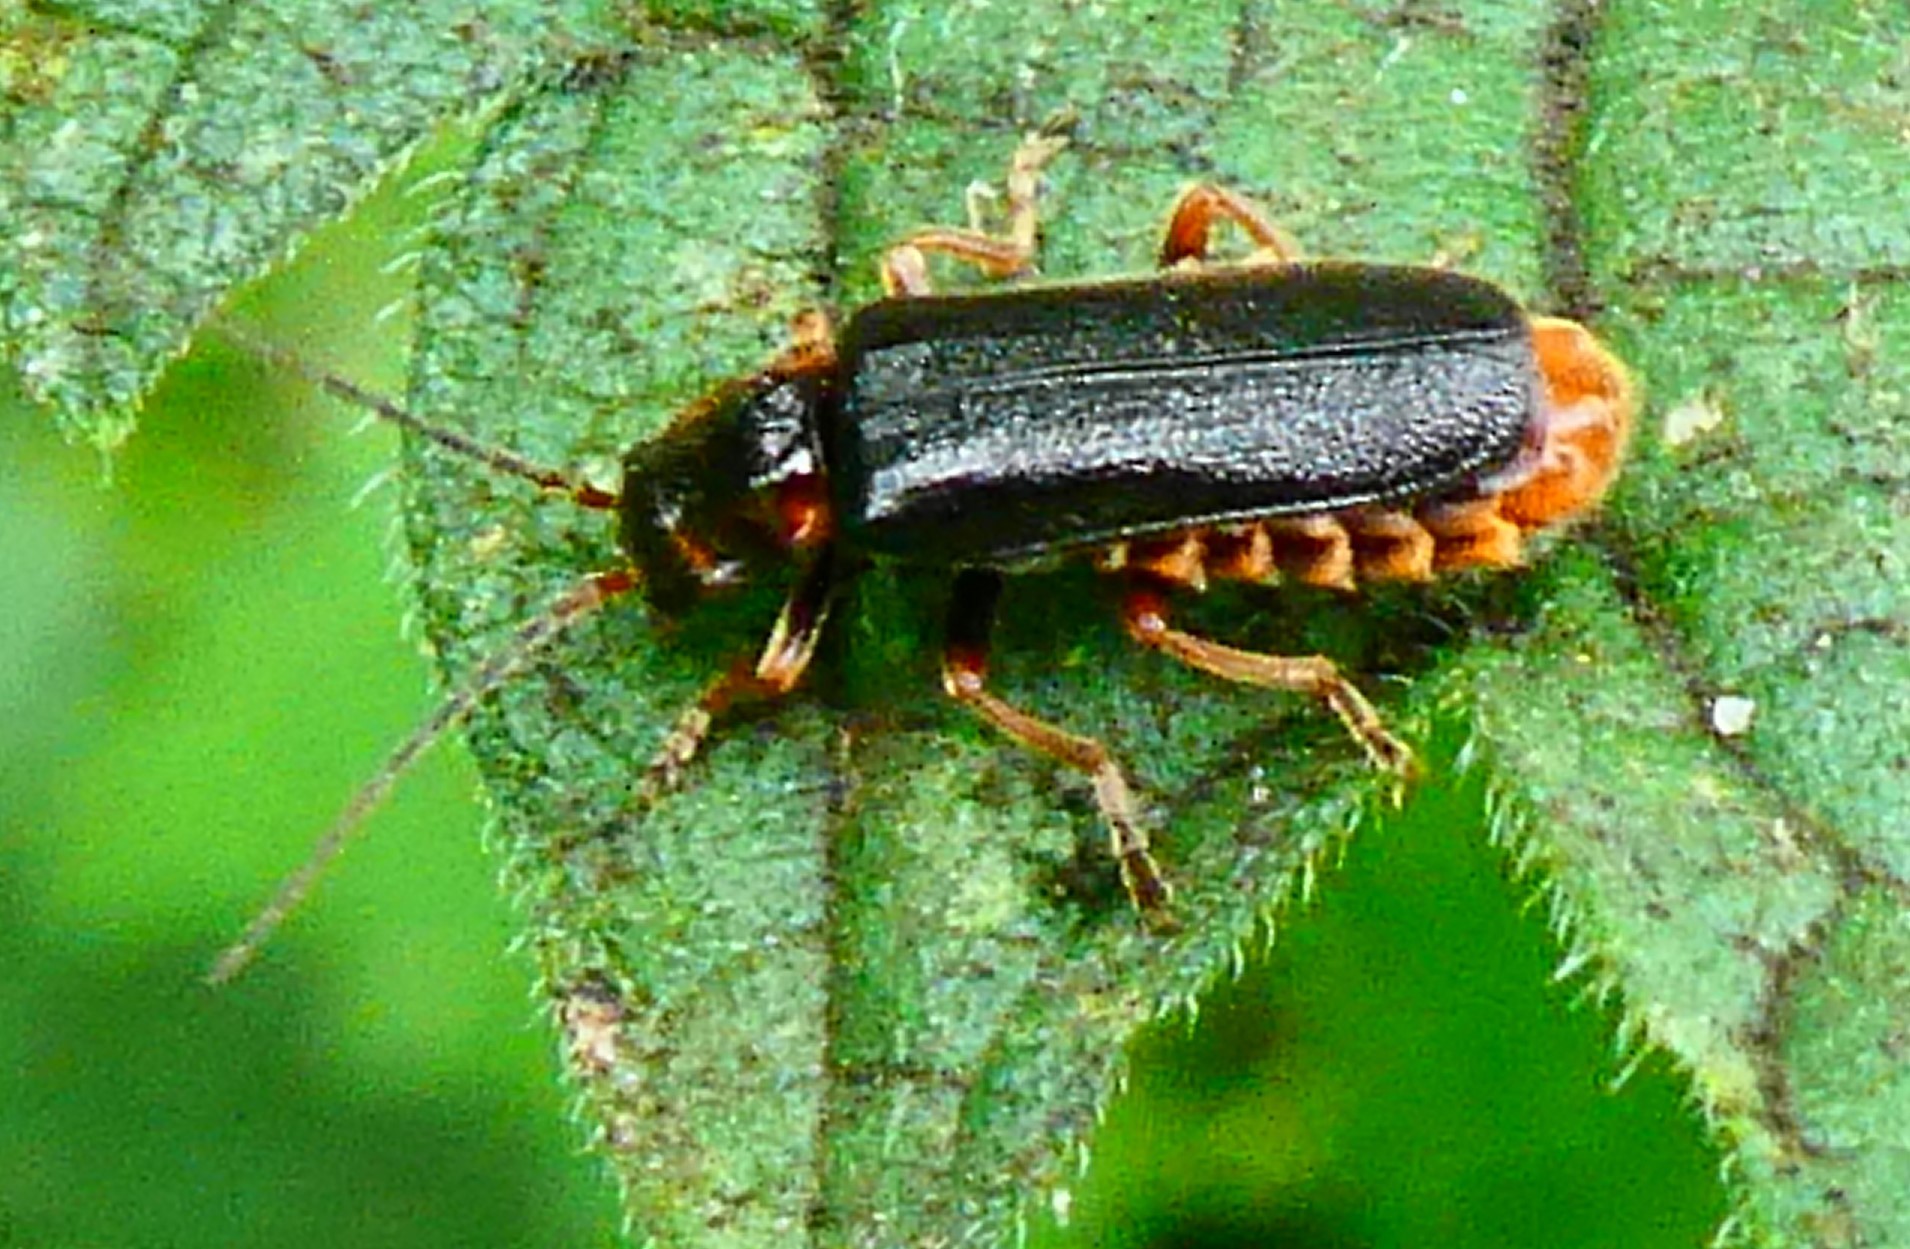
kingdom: Animalia
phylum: Arthropoda
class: Insecta
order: Coleoptera
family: Cantharidae
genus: Cantharis
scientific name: Cantharis flavilabris
